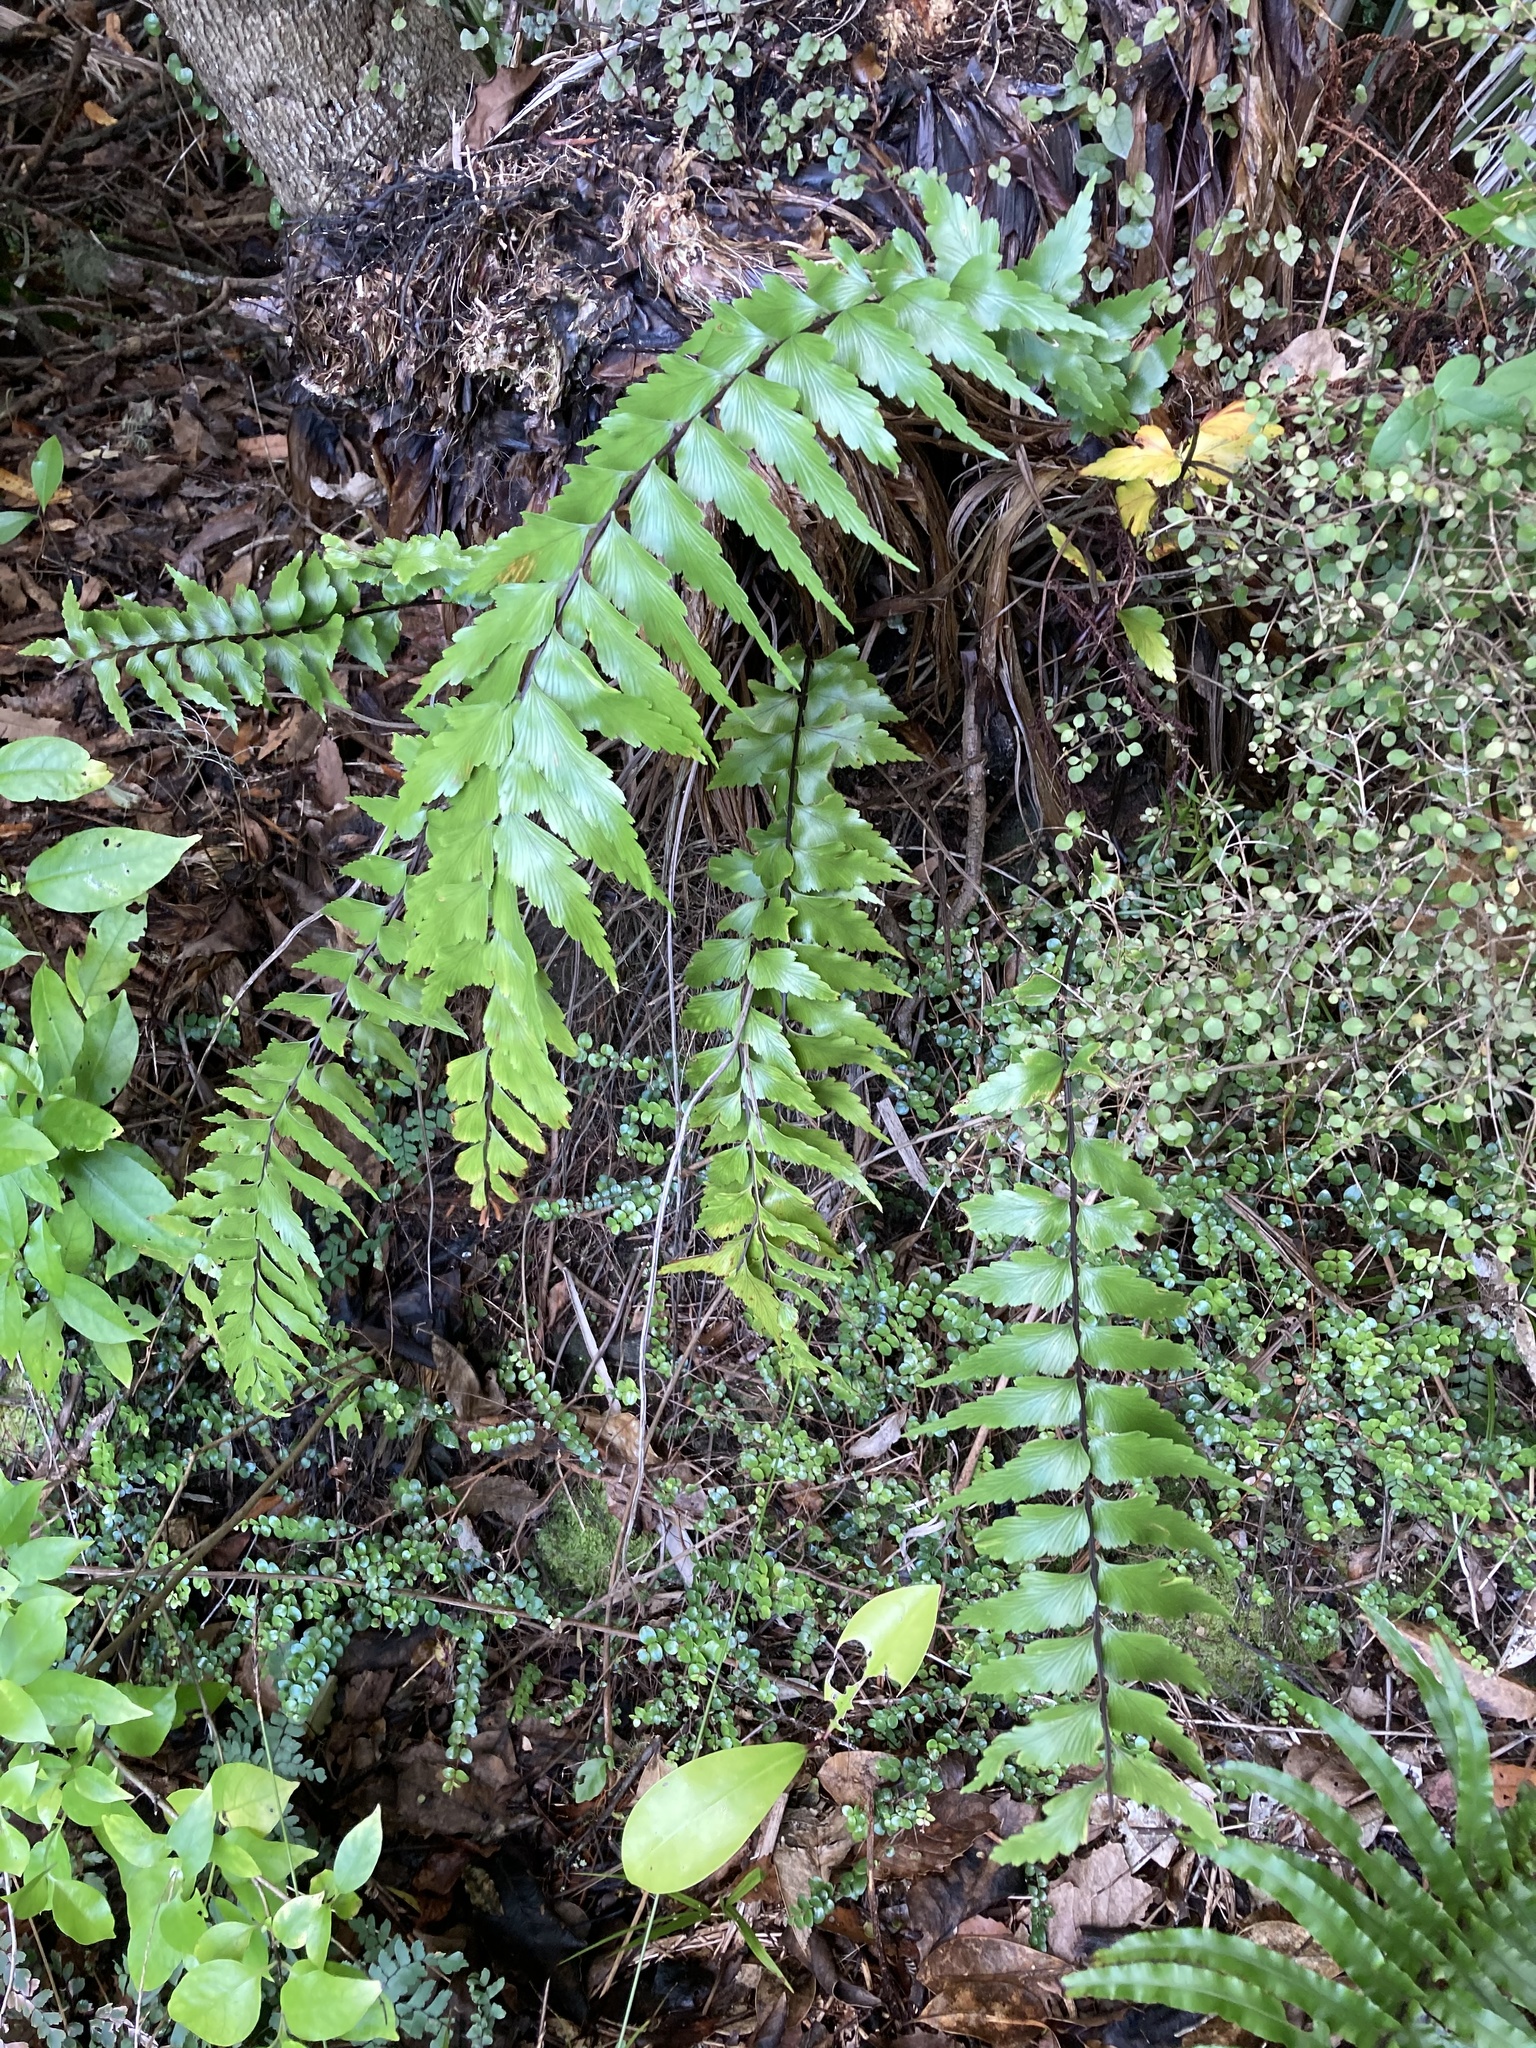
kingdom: Plantae
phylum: Tracheophyta
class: Polypodiopsida
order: Polypodiales
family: Aspleniaceae
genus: Asplenium
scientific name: Asplenium polyodon
